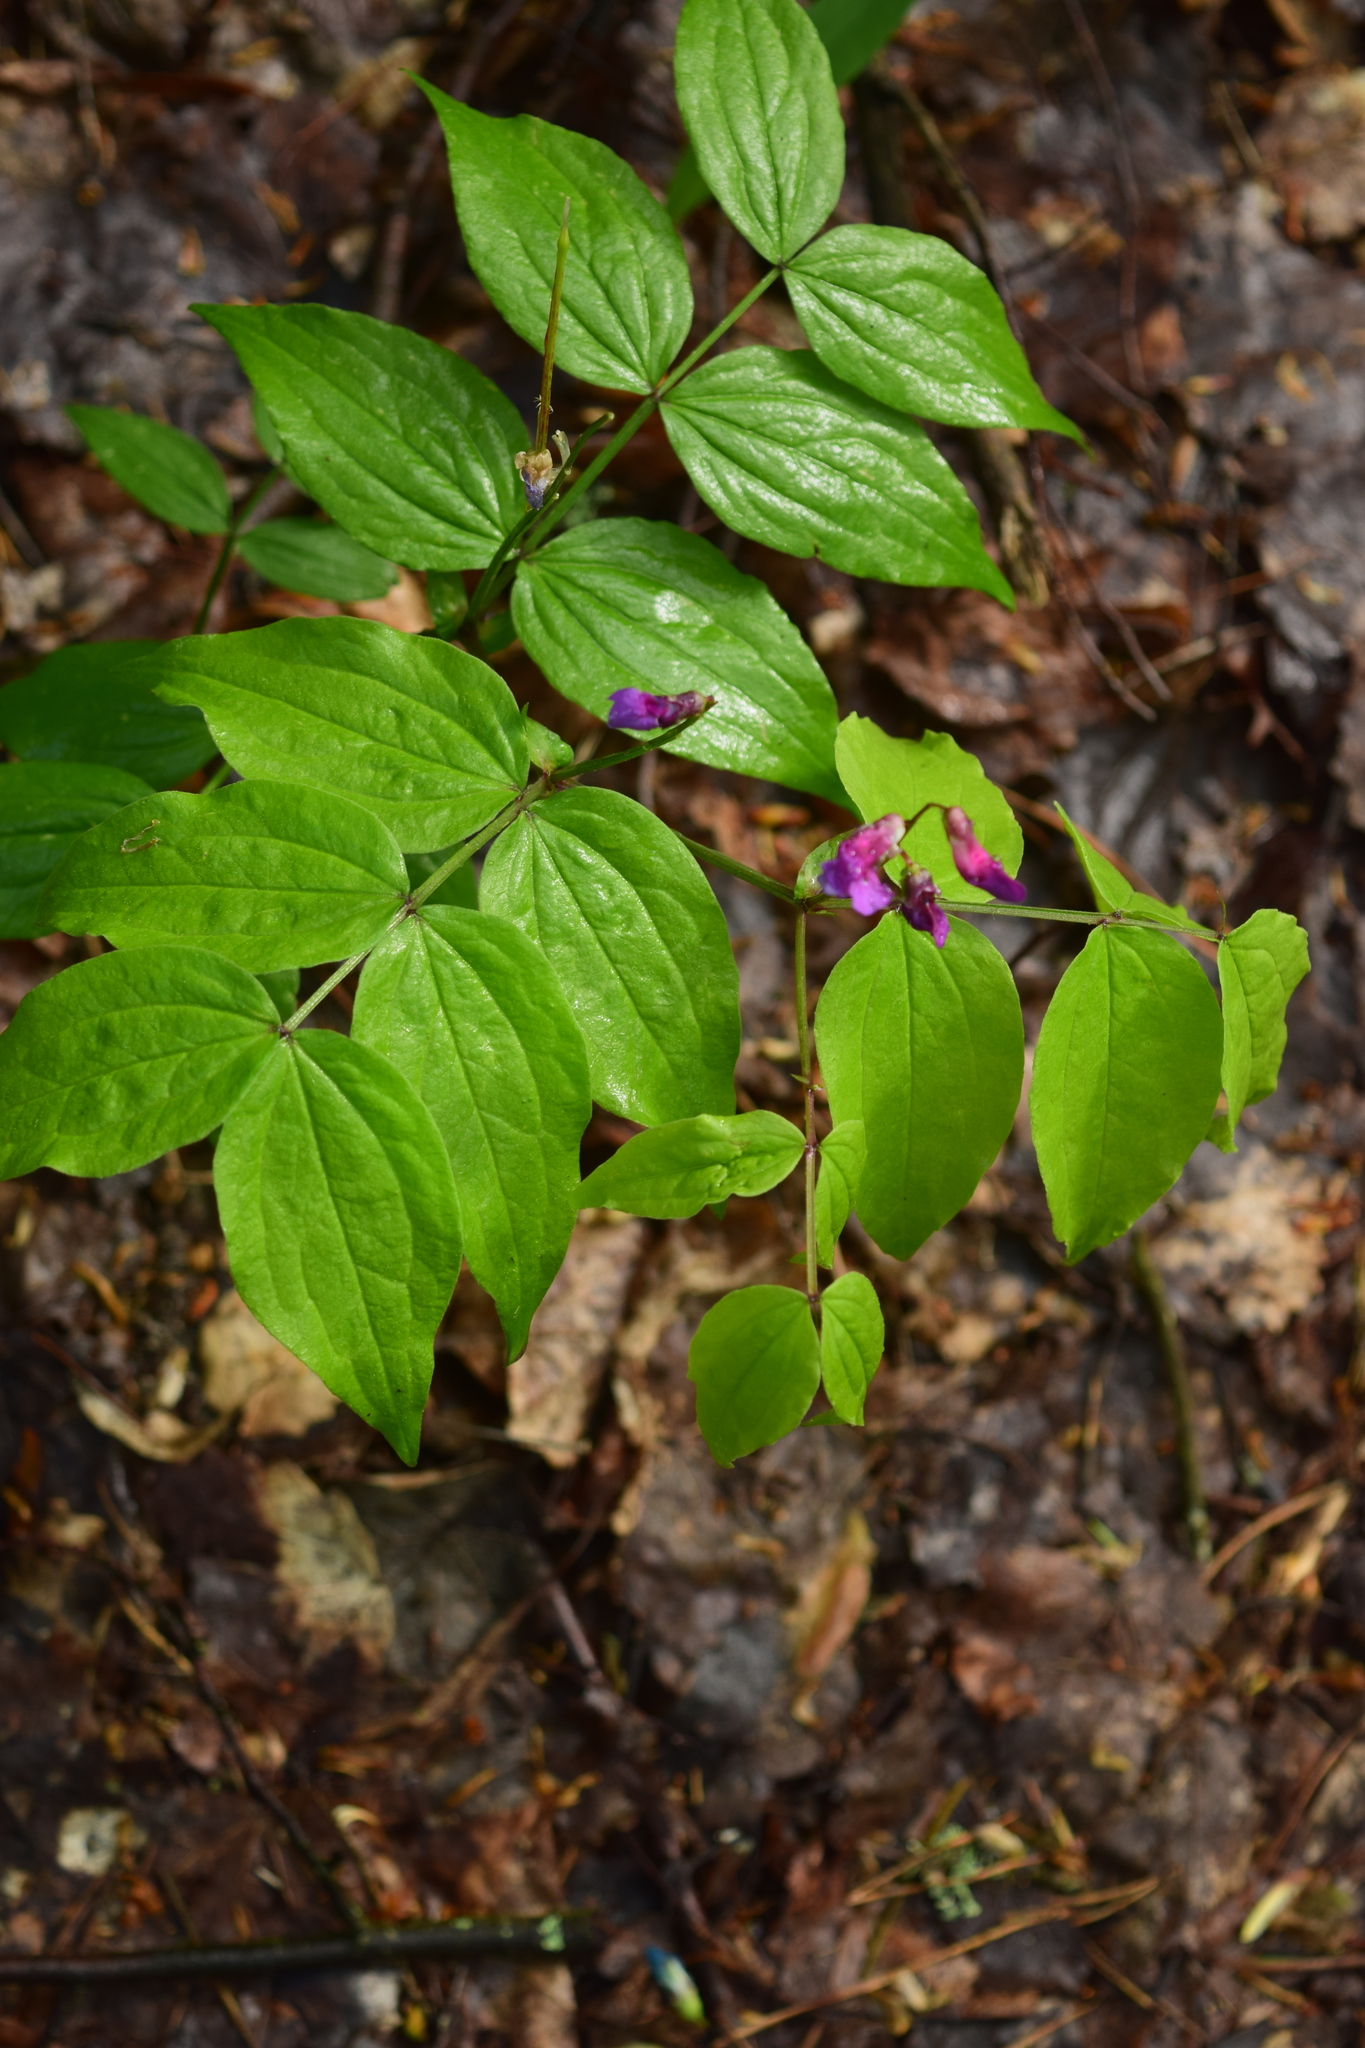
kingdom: Plantae
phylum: Tracheophyta
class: Magnoliopsida
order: Fabales
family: Fabaceae
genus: Lathyrus
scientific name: Lathyrus vernus
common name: Spring pea
